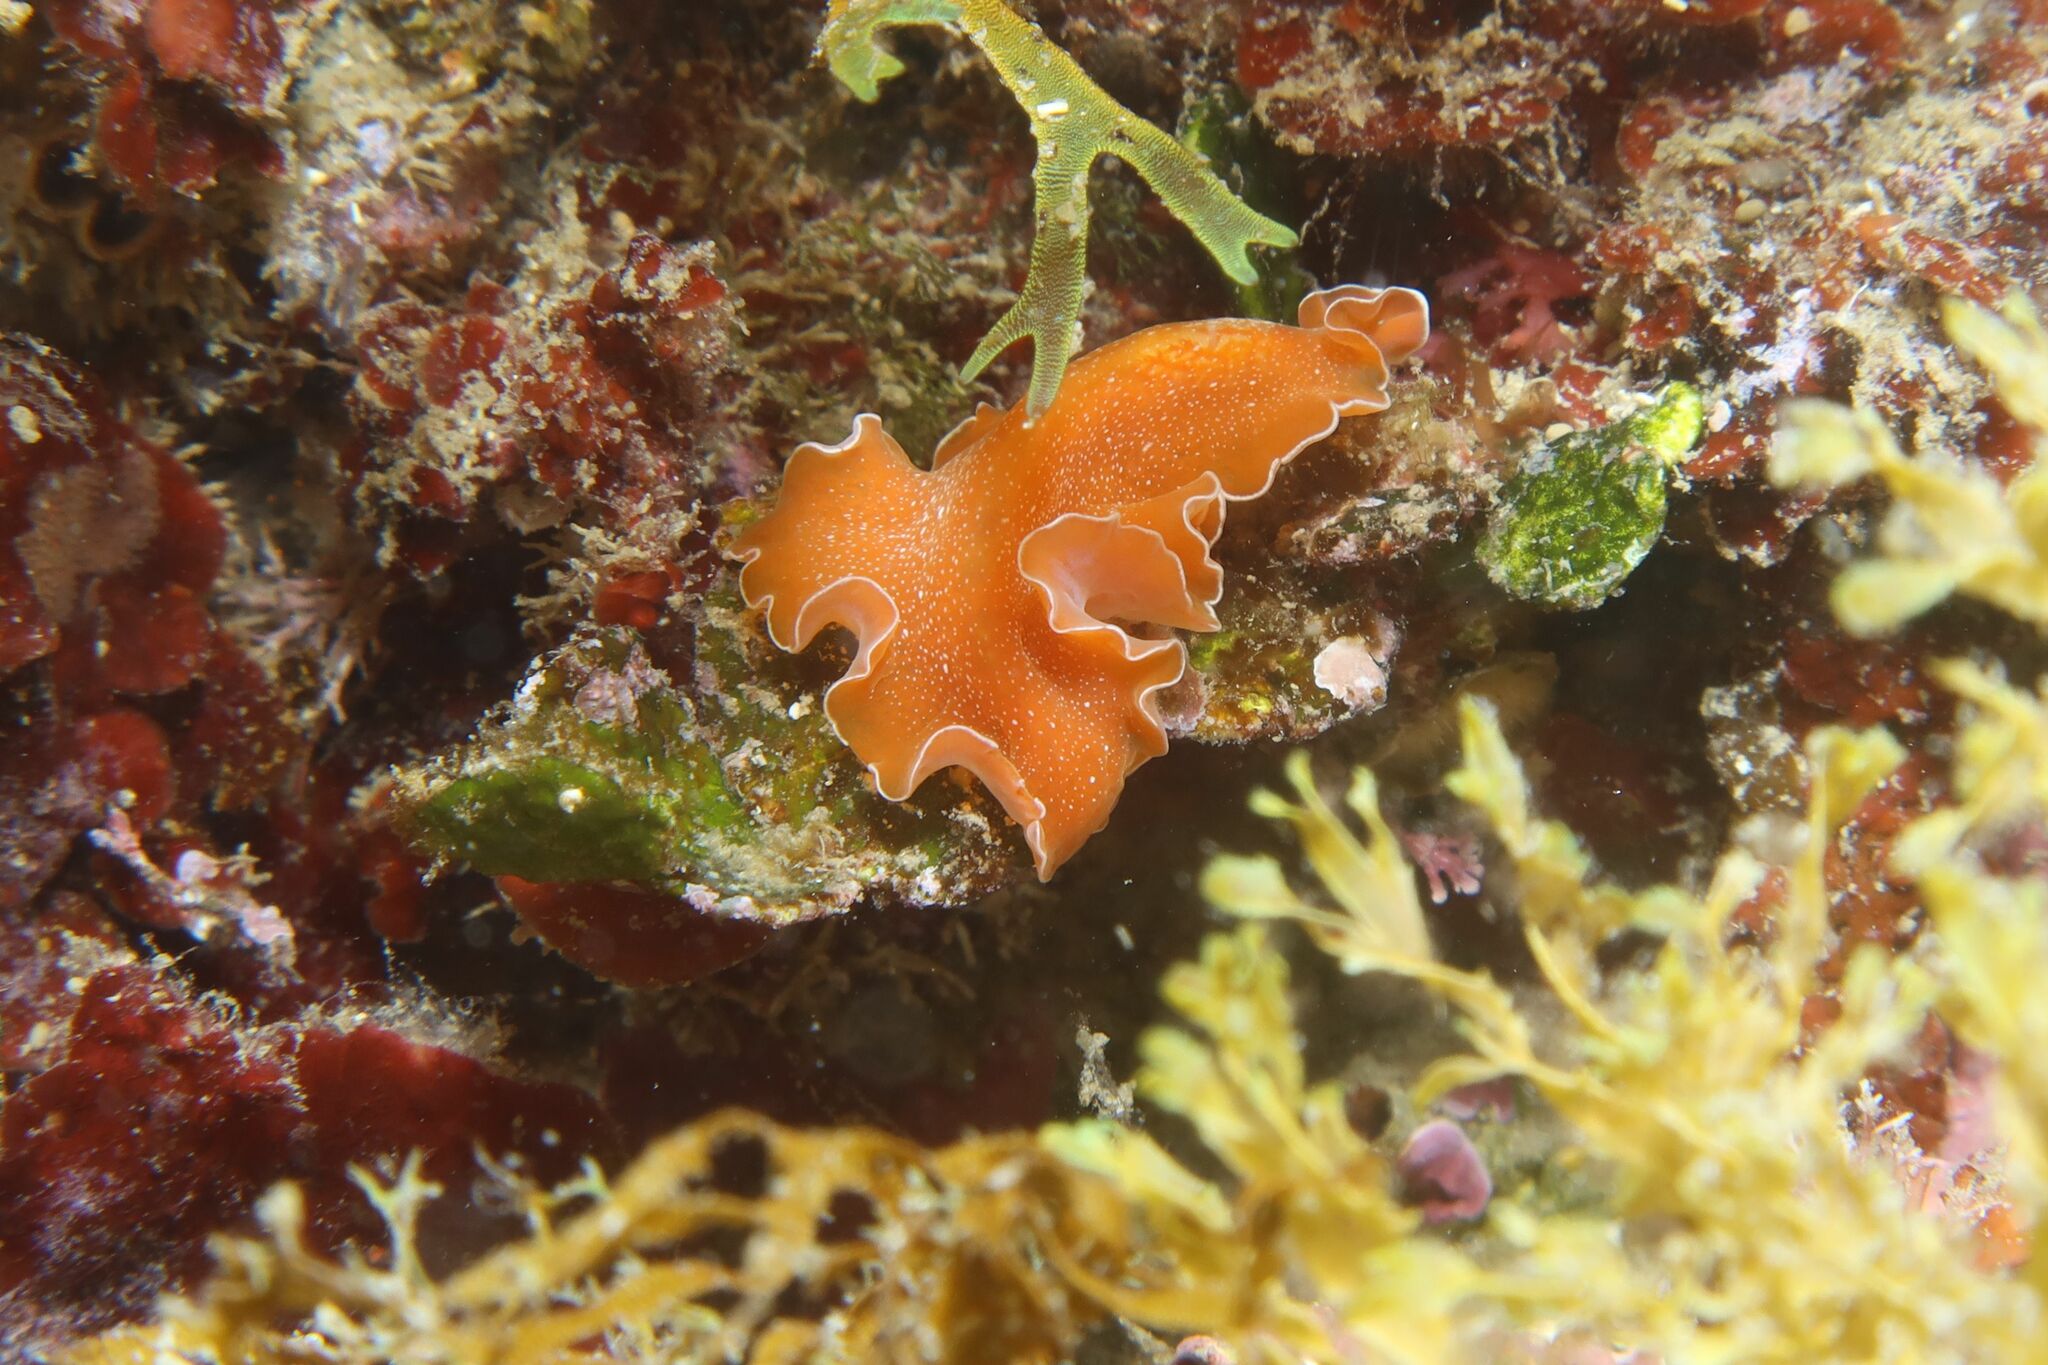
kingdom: Animalia
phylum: Platyhelminthes
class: Turbellaria
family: Pseudocerotidae
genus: Yungia
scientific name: Yungia aurantiaca
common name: Mediterranean orange polyclad worm
